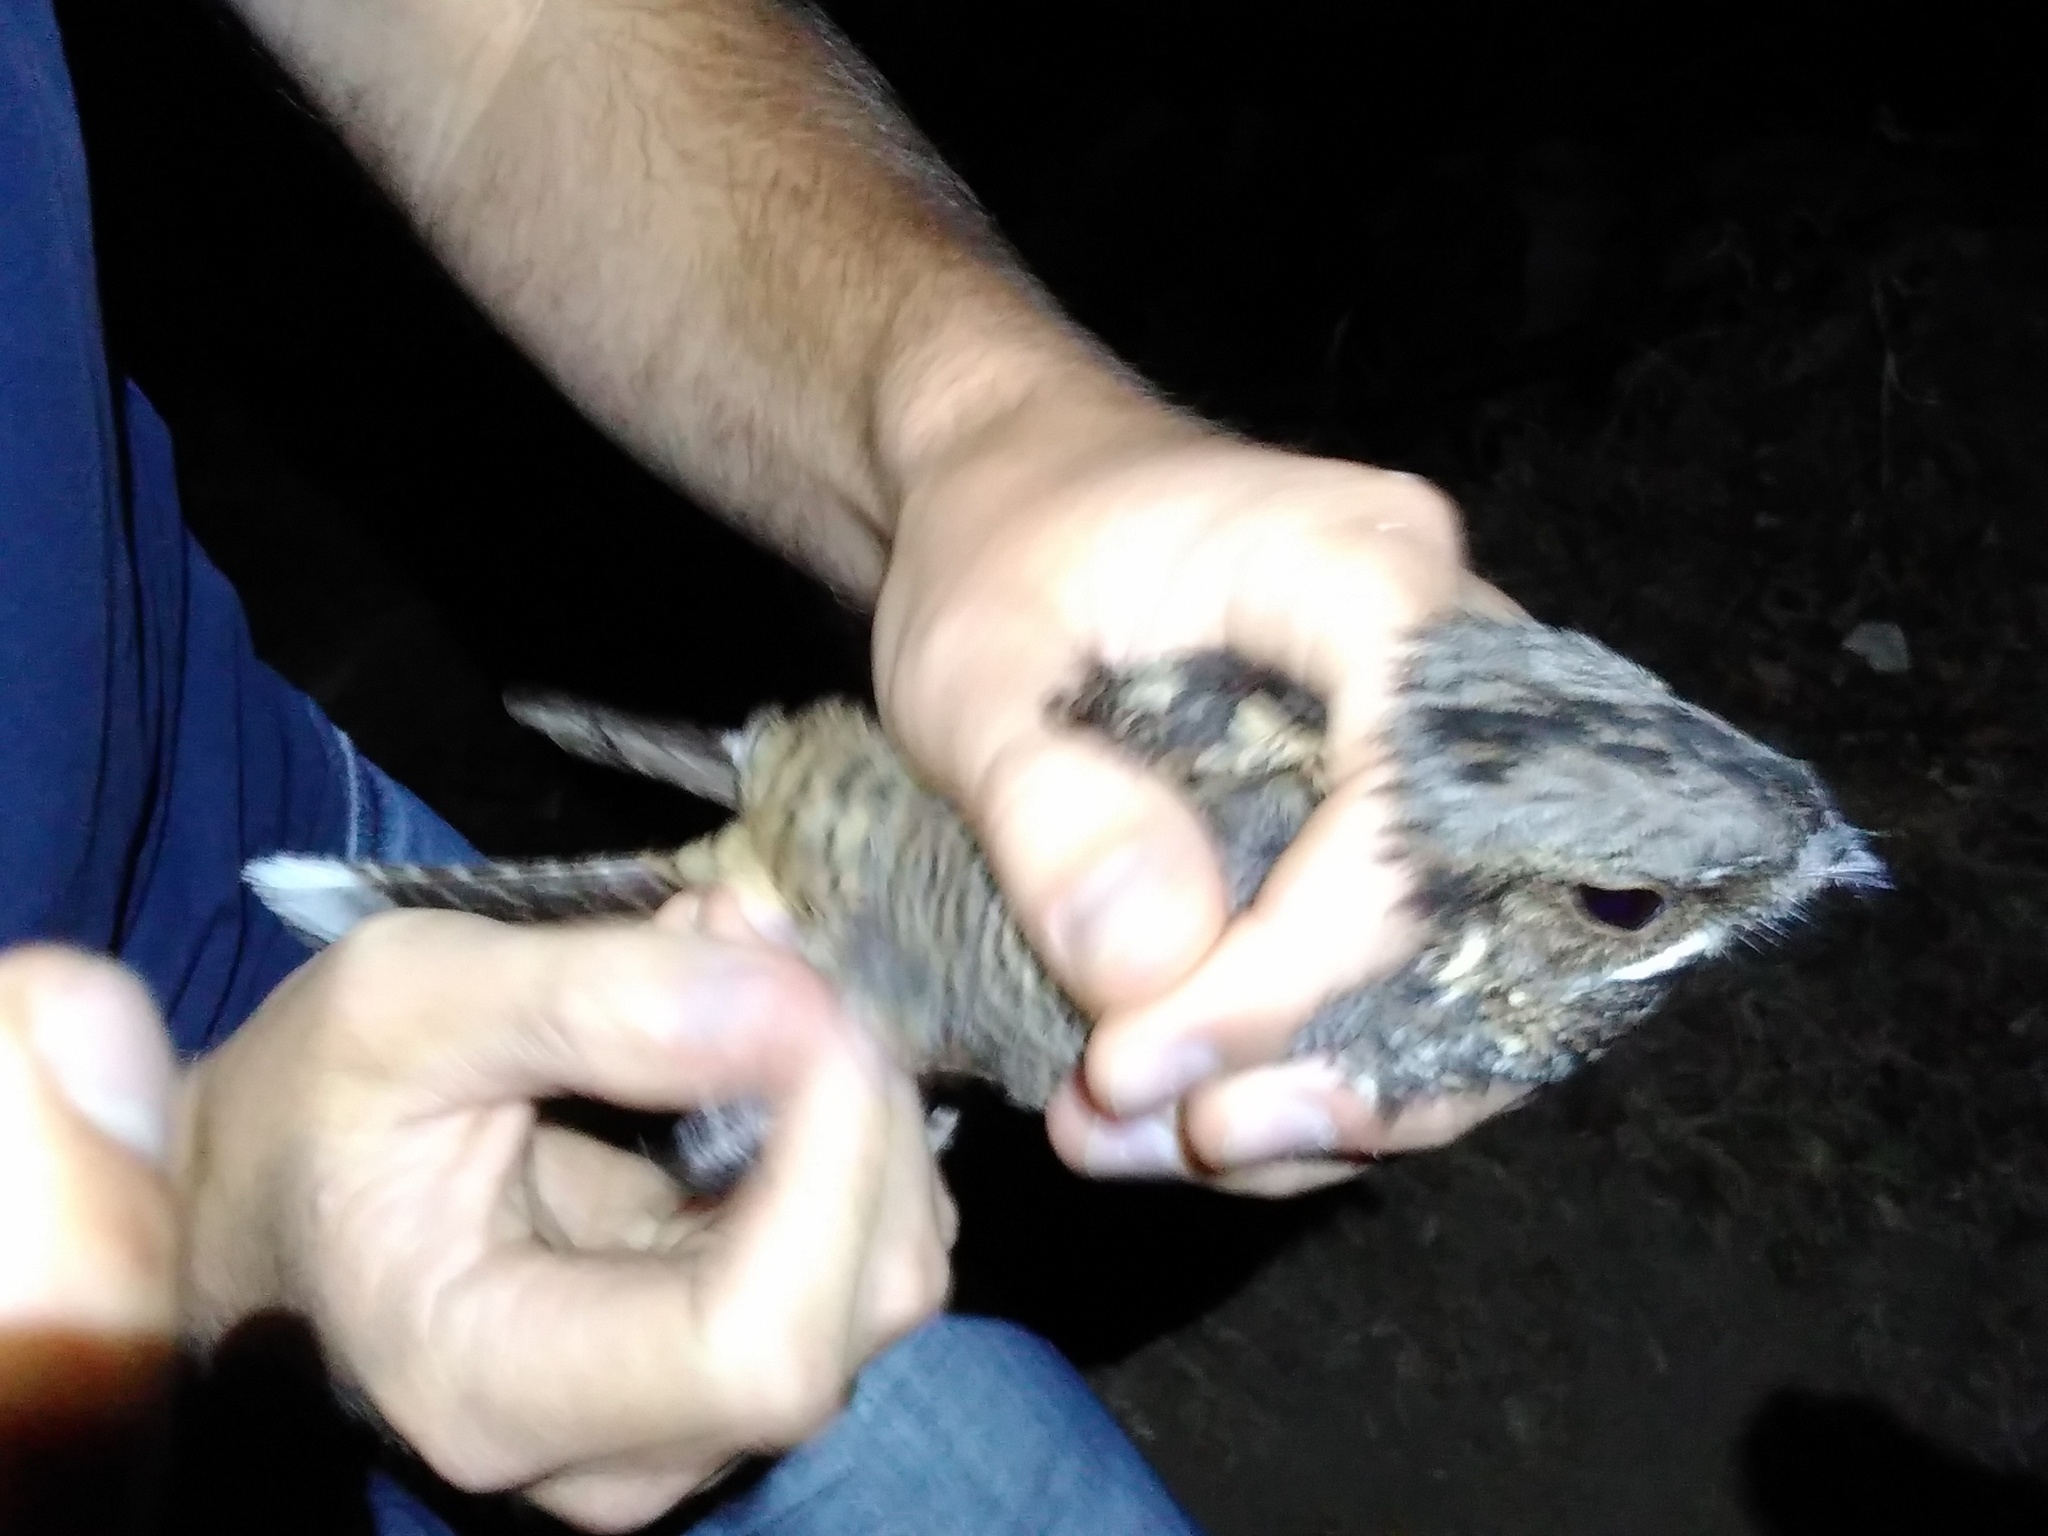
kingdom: Animalia
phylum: Chordata
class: Aves
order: Caprimulgiformes
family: Caprimulgidae
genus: Caprimulgus
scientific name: Caprimulgus europaeus
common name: European nightjar
